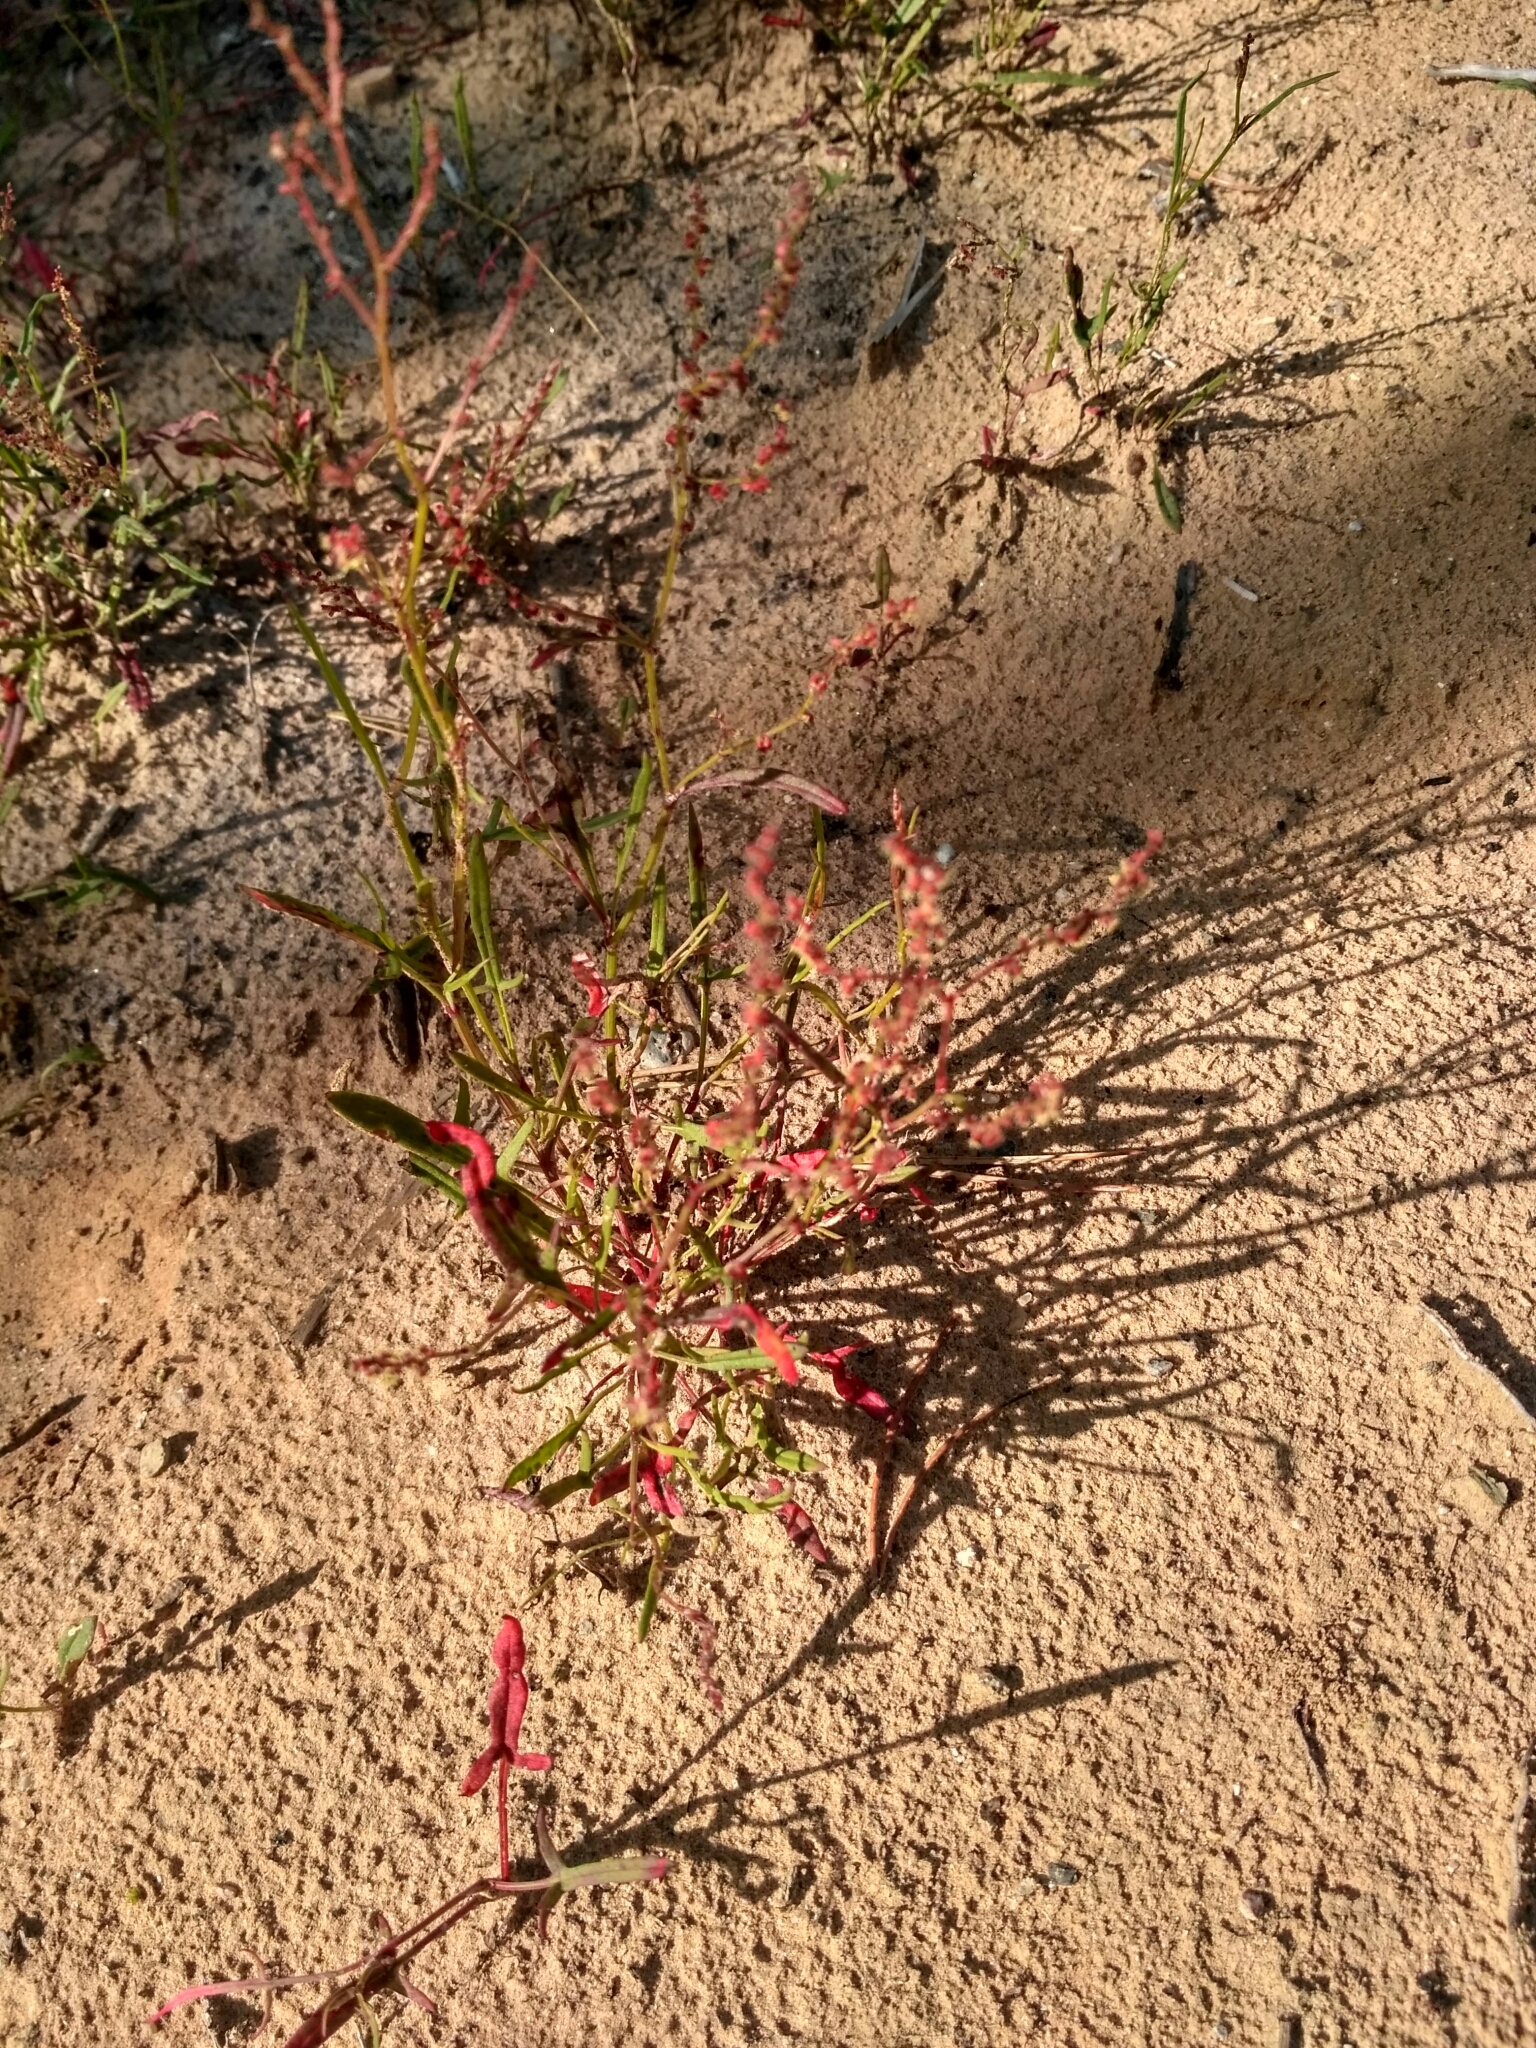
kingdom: Plantae
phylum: Tracheophyta
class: Magnoliopsida
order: Caryophyllales
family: Polygonaceae
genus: Rumex
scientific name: Rumex acetosella
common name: Common sheep sorrel
